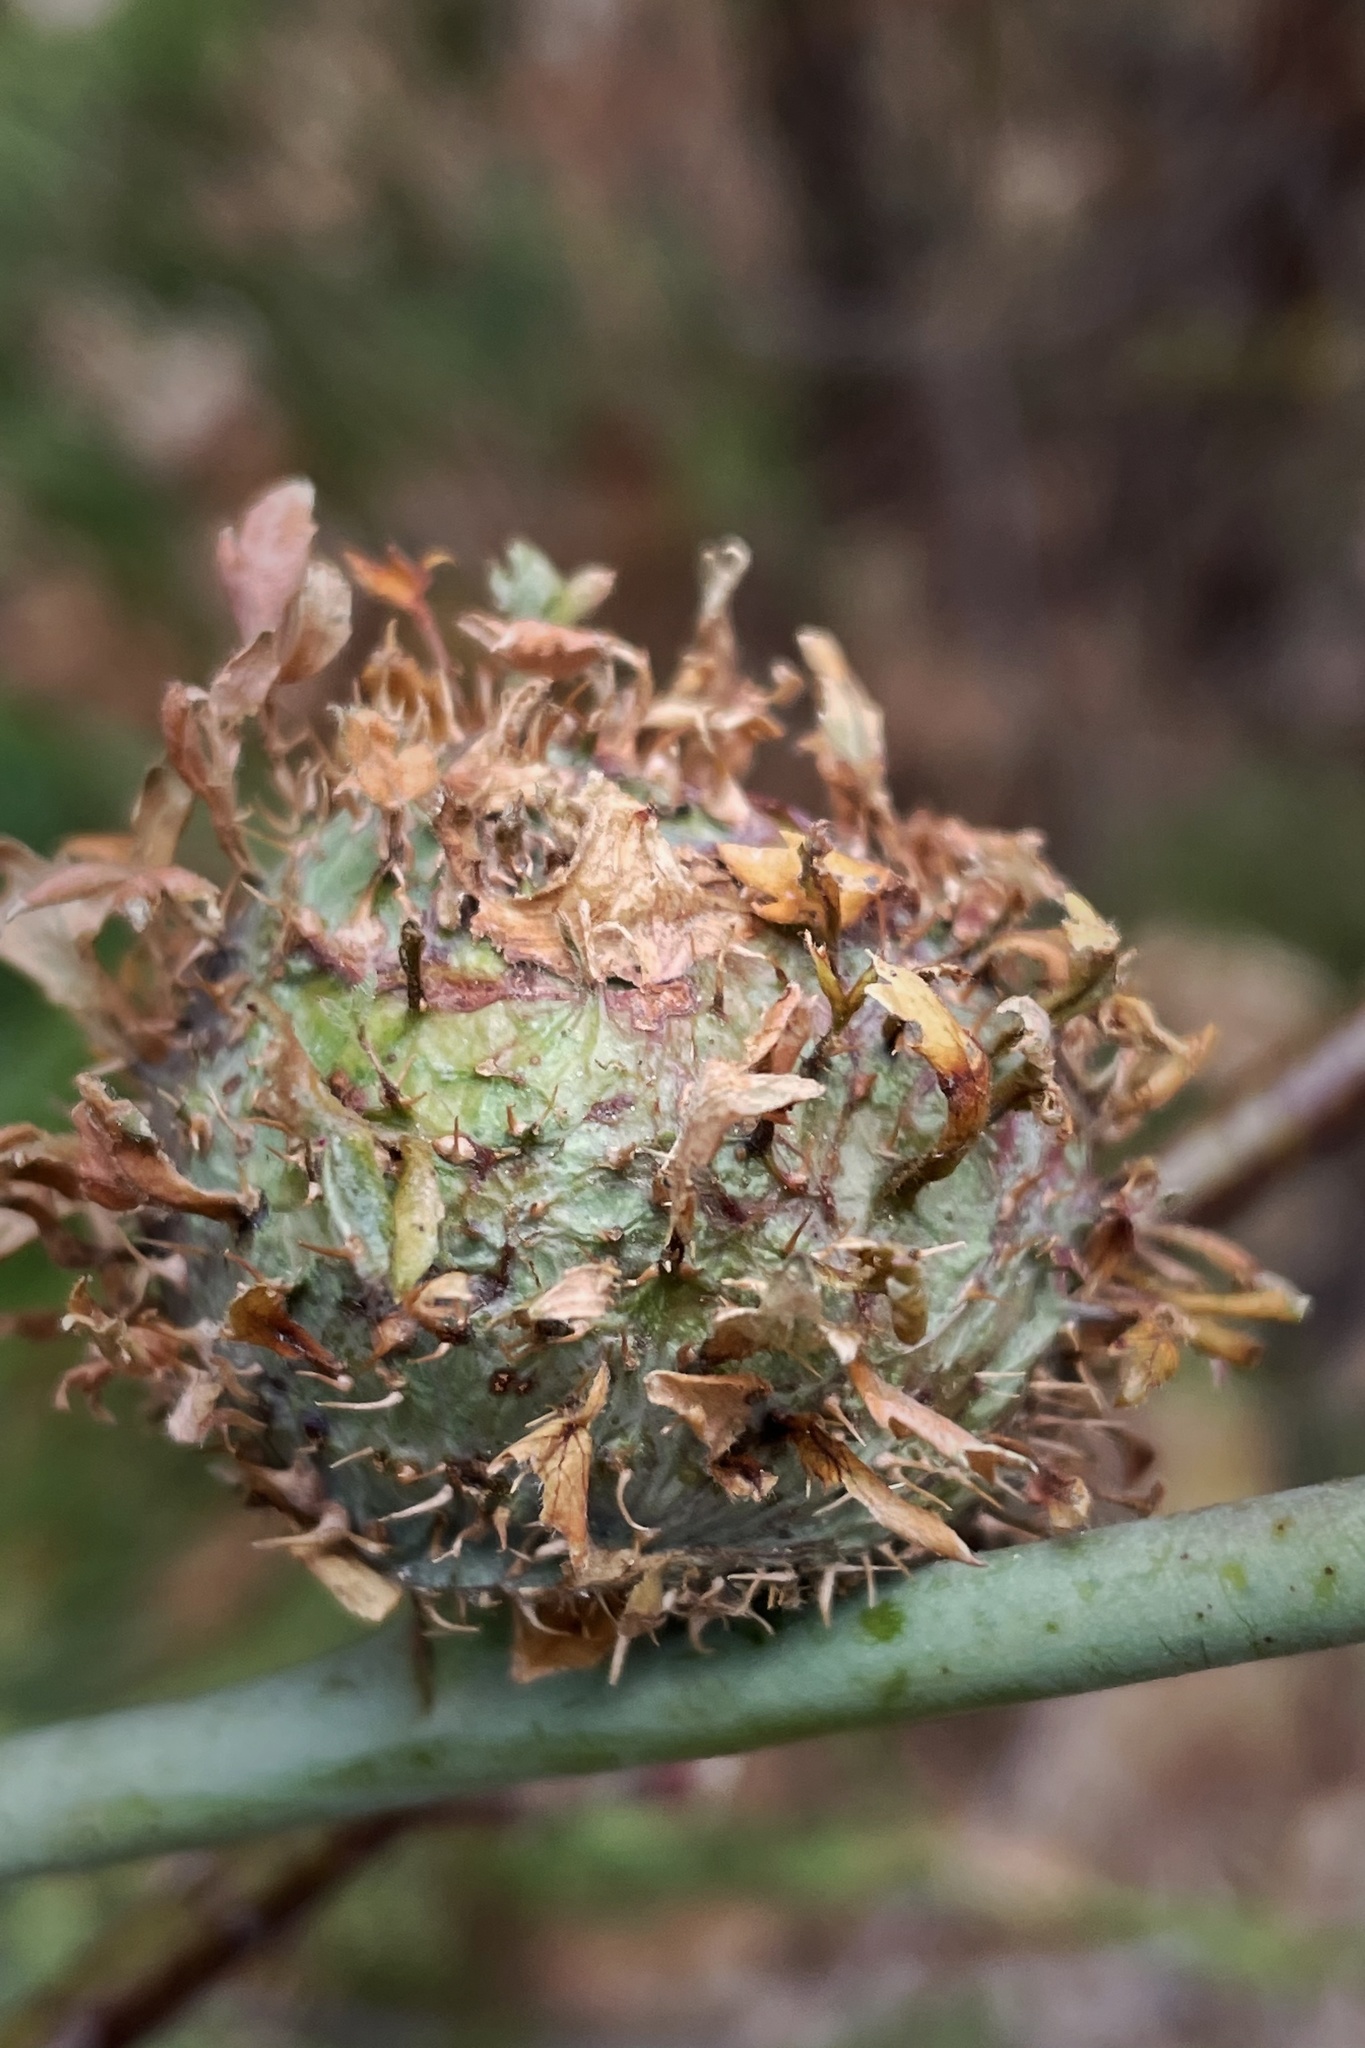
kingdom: Animalia
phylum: Arthropoda
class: Insecta
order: Hymenoptera
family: Cynipidae
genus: Diplolepis
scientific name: Diplolepis californica
